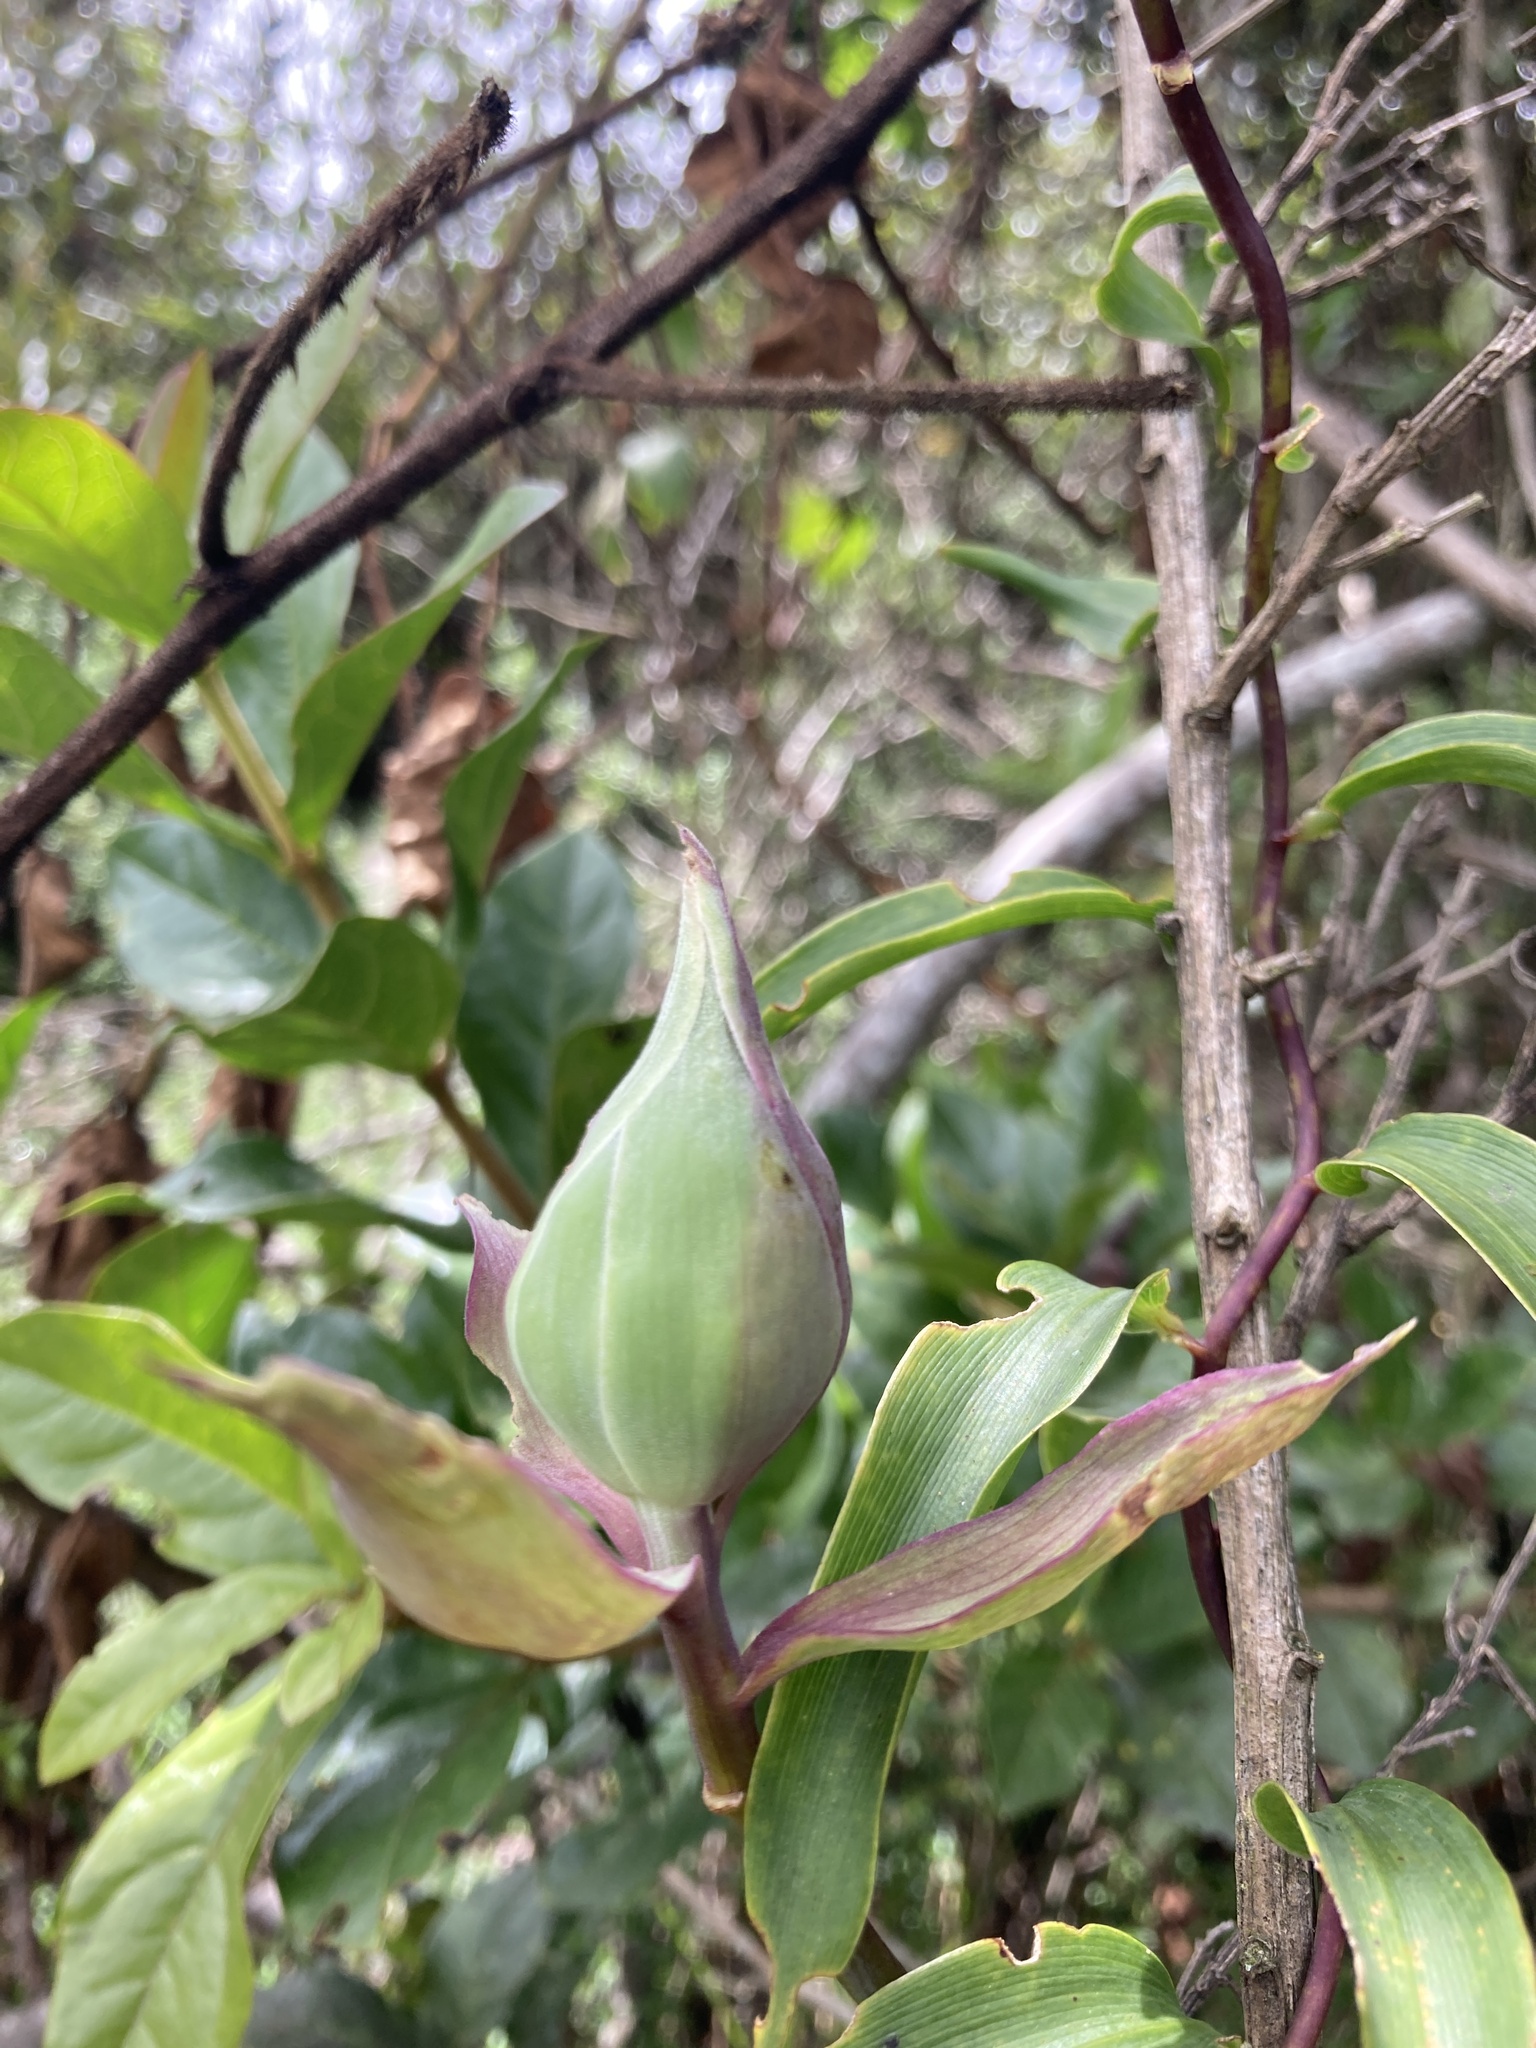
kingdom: Plantae
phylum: Tracheophyta
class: Liliopsida
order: Liliales
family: Alstroemeriaceae
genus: Bomarea
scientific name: Bomarea multiflora
